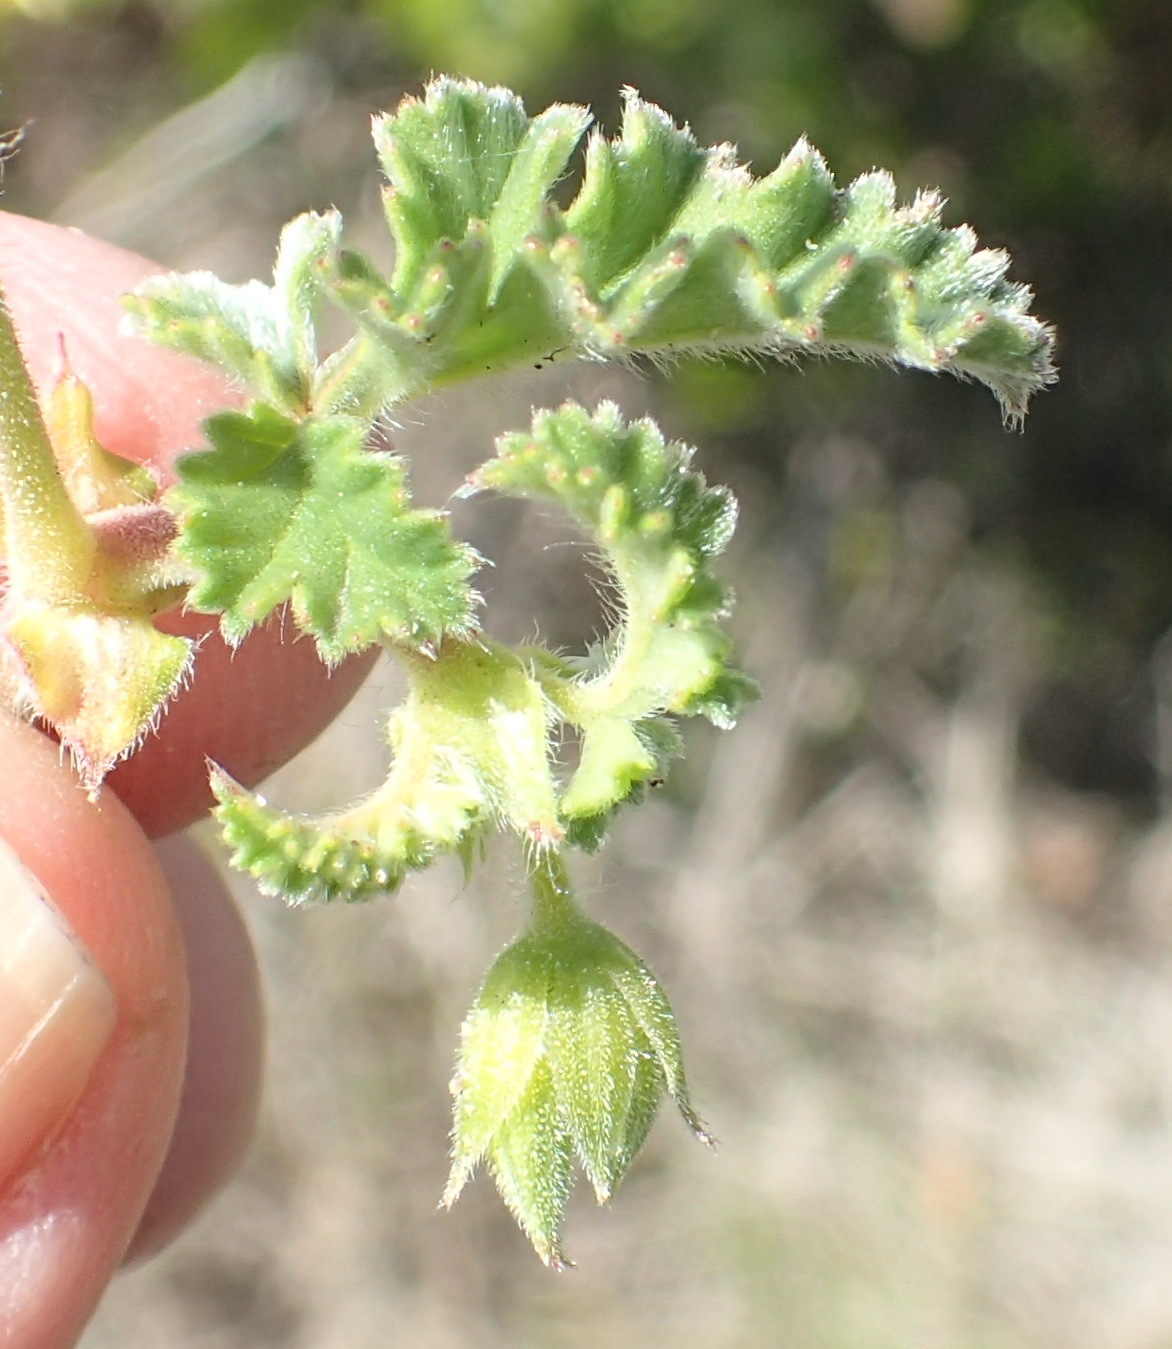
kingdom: Plantae
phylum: Tracheophyta
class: Magnoliopsida
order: Geraniales
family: Geraniaceae
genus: Pelargonium
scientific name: Pelargonium candicans
